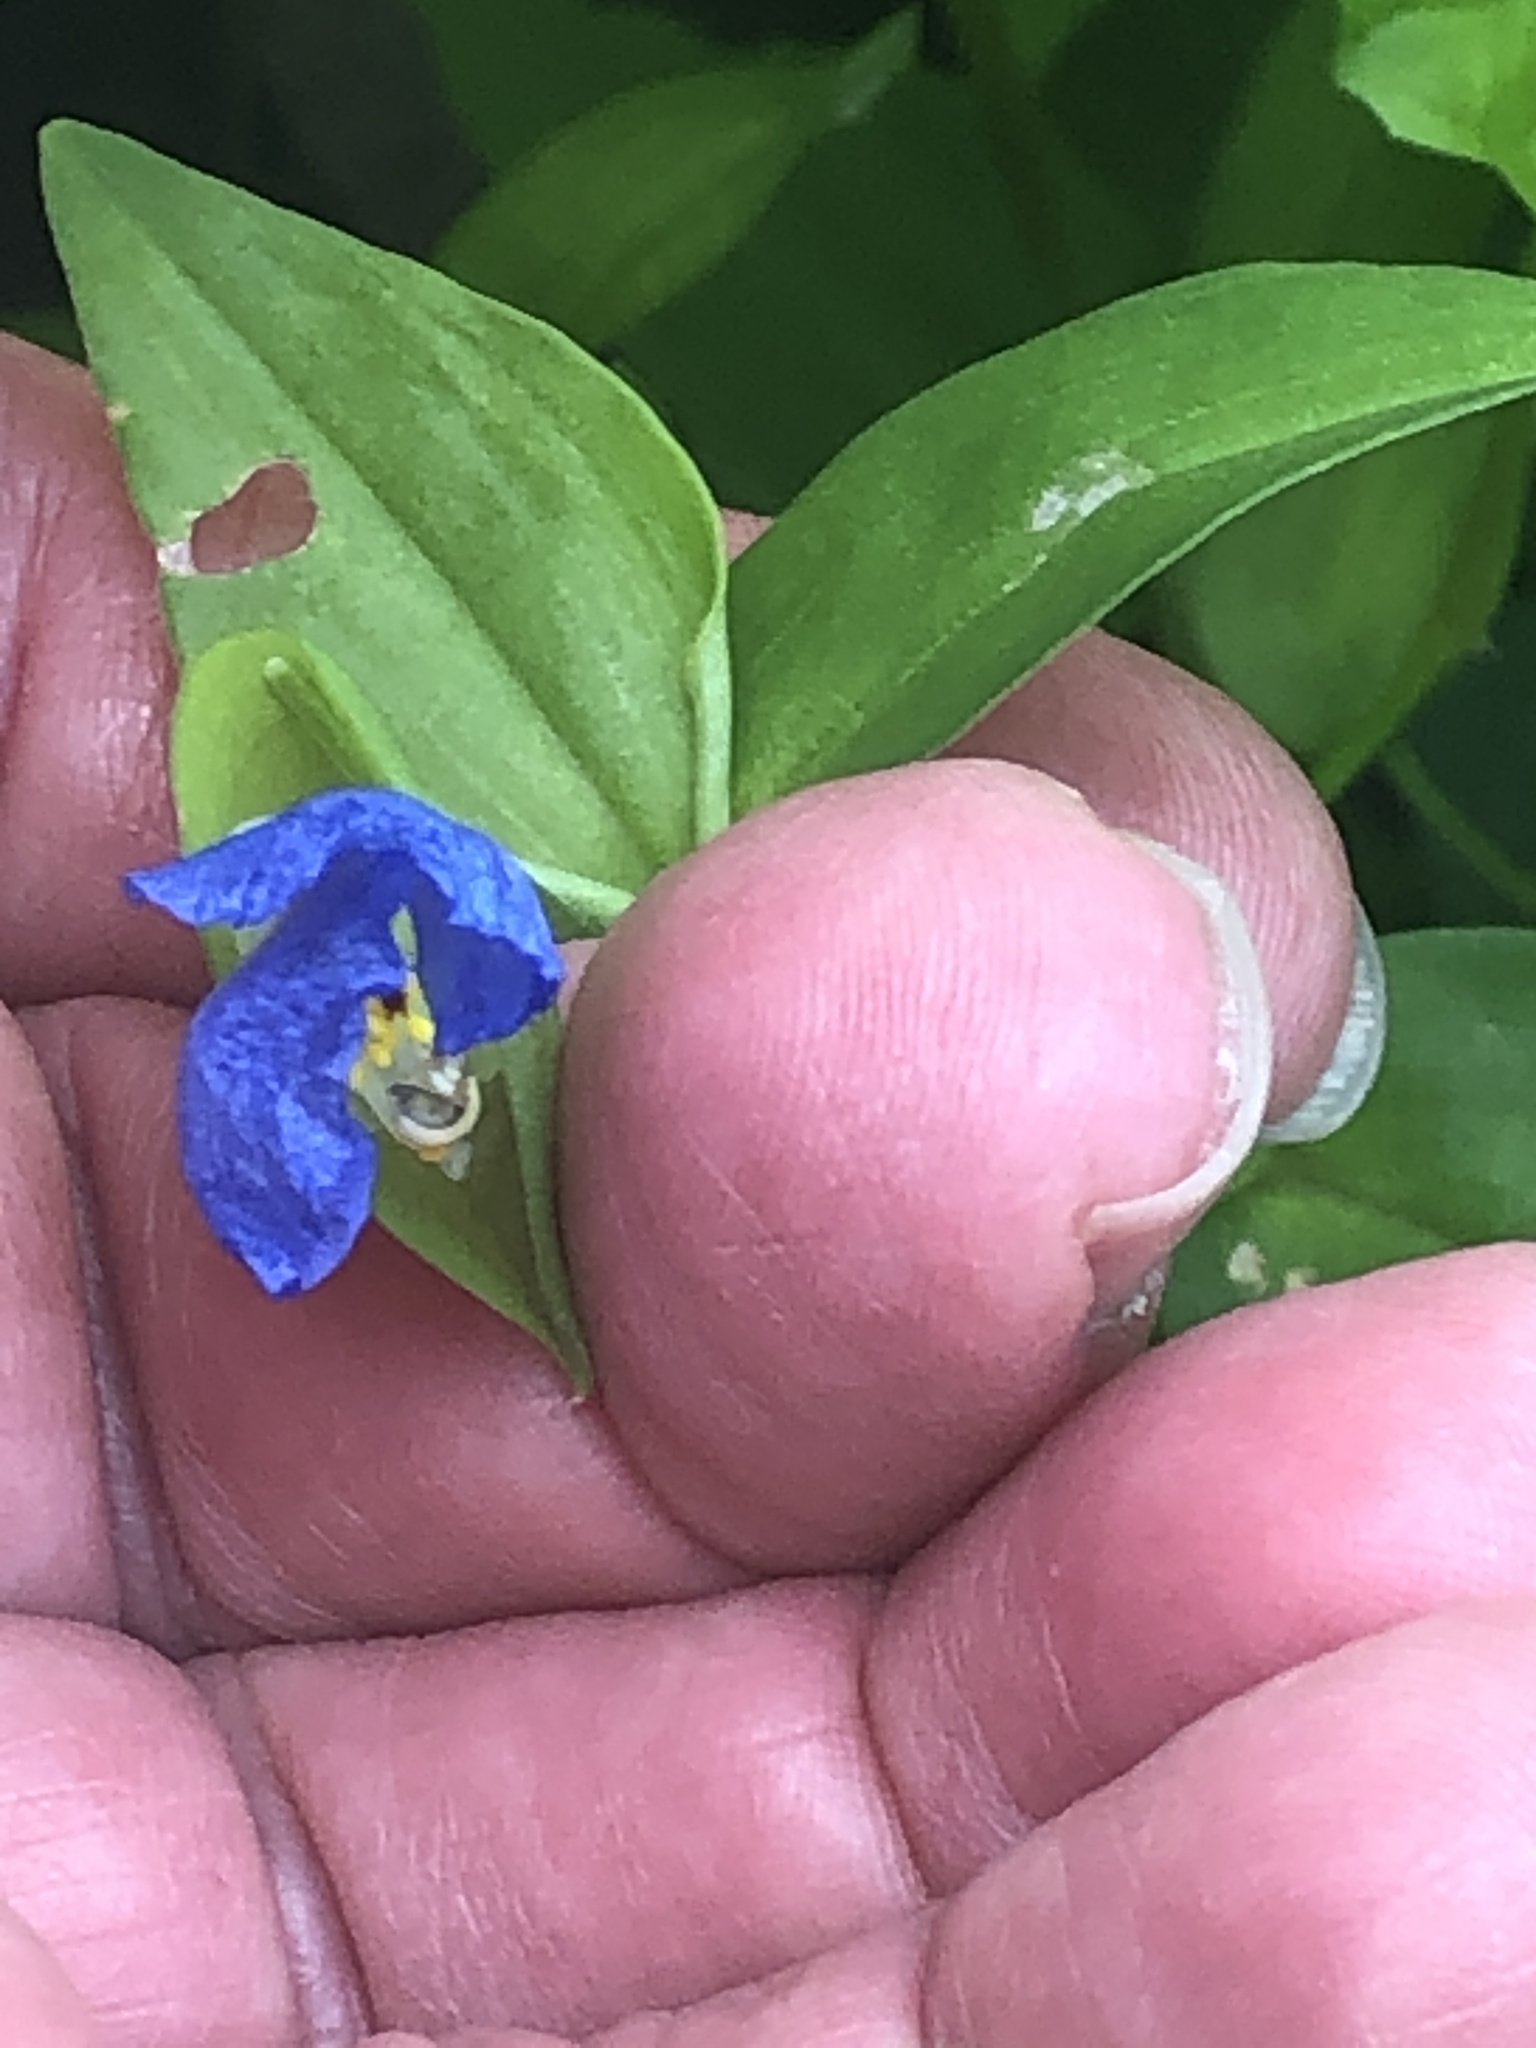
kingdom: Plantae
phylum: Tracheophyta
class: Liliopsida
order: Commelinales
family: Commelinaceae
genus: Commelina
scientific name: Commelina communis
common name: Asiatic dayflower
